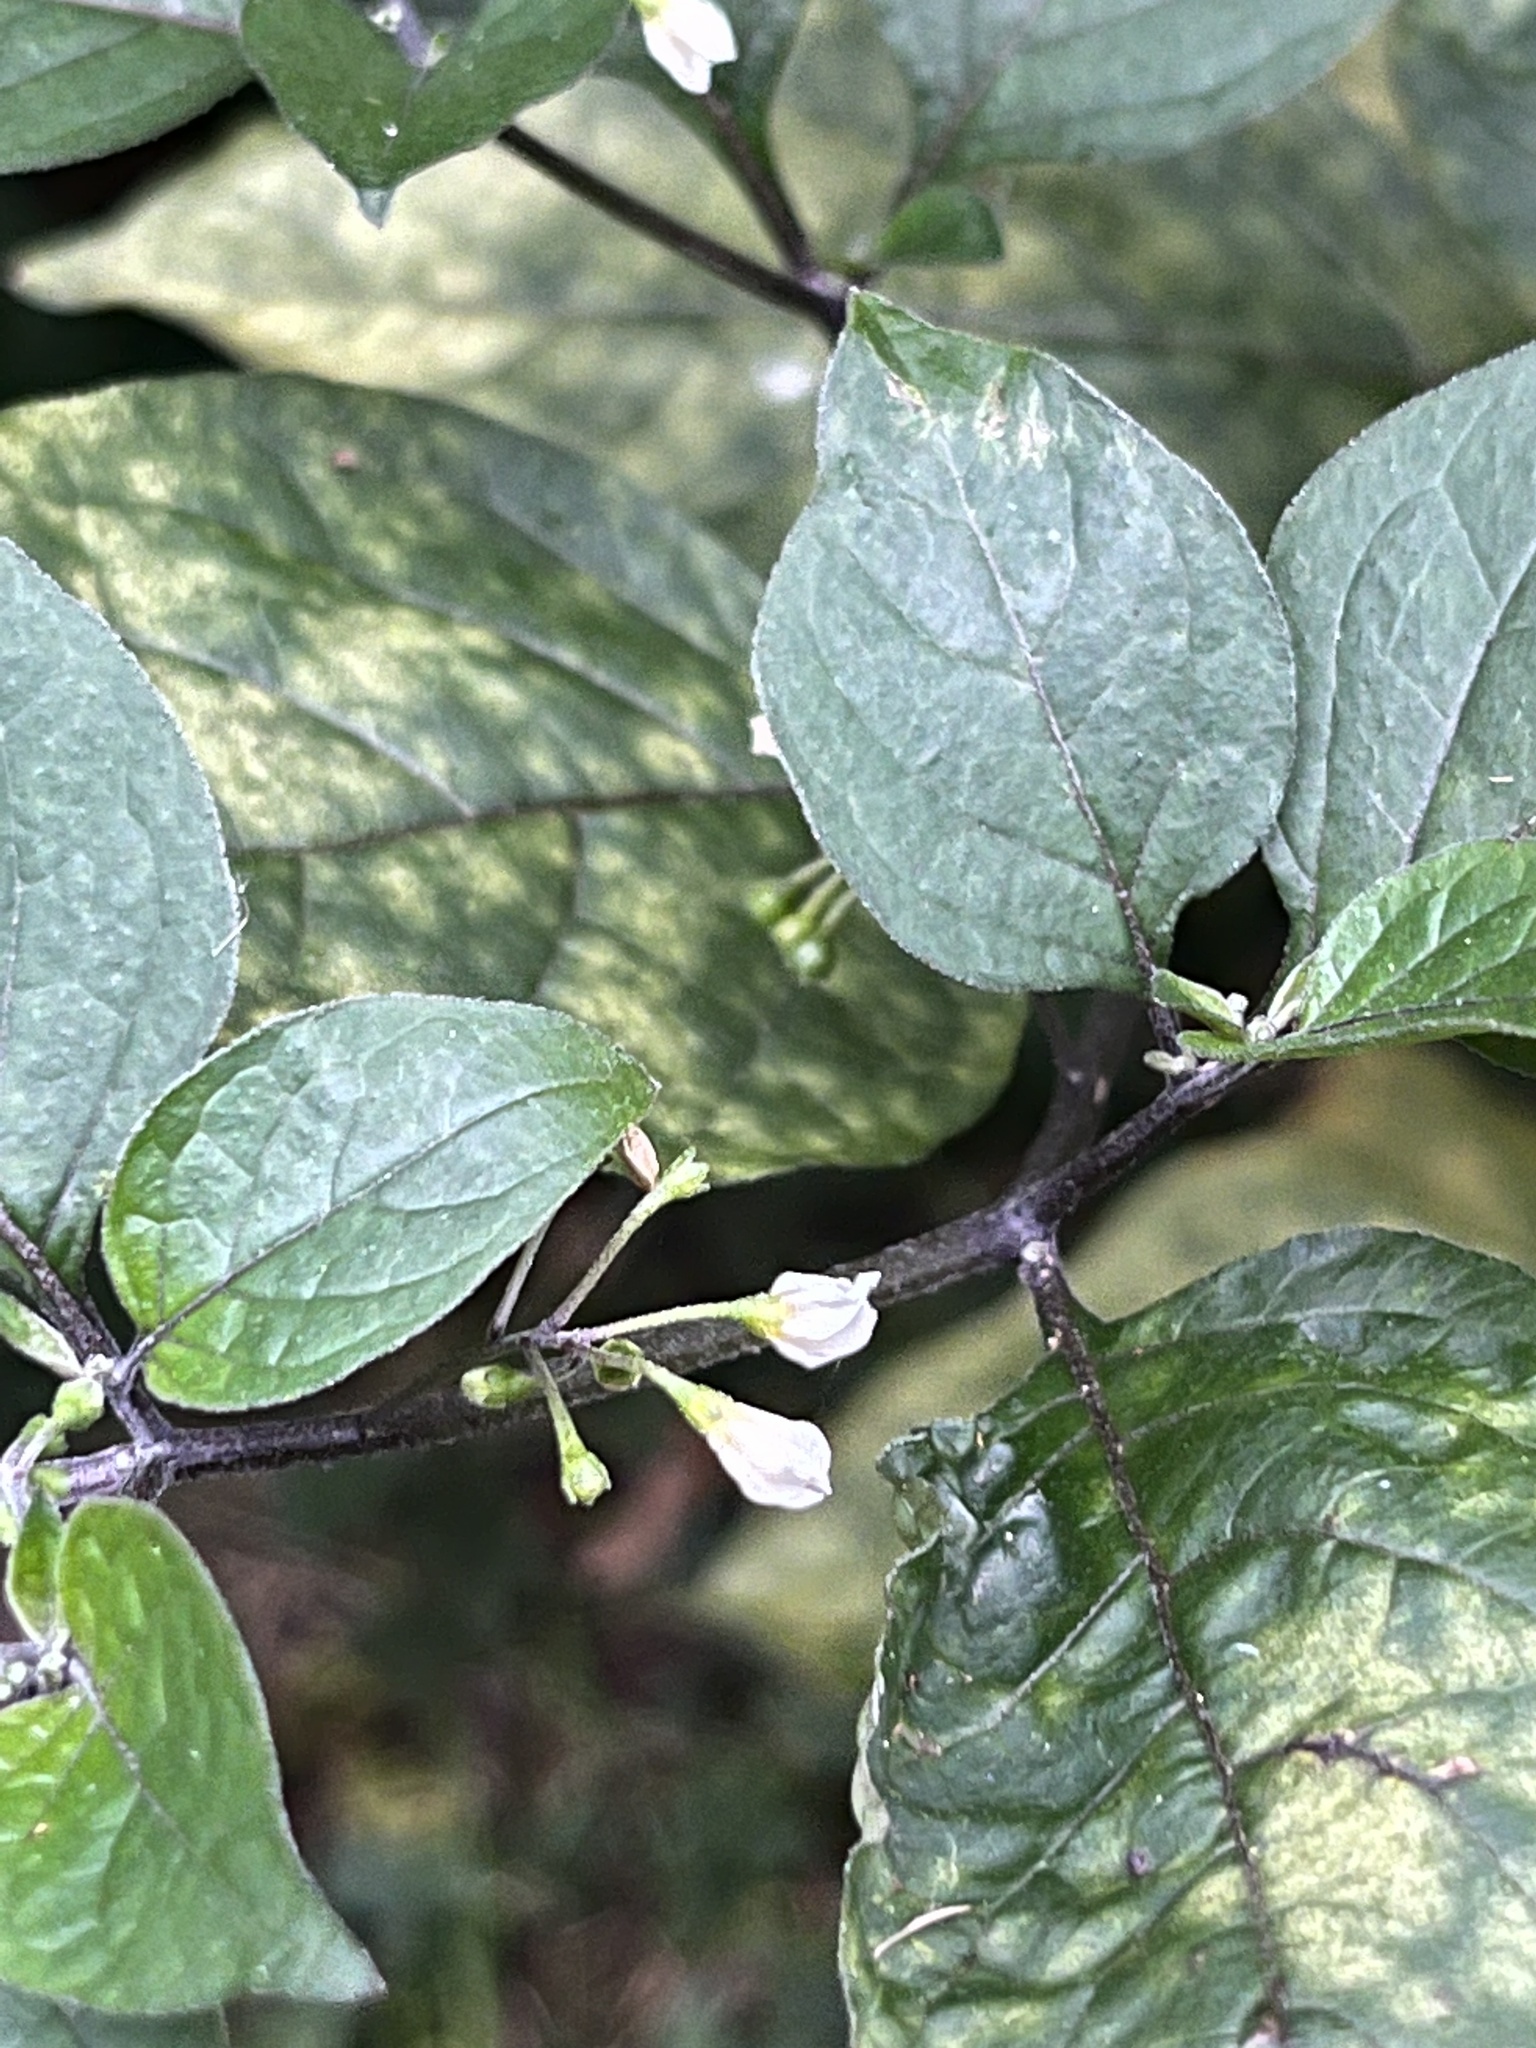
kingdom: Plantae
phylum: Tracheophyta
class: Magnoliopsida
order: Solanales
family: Solanaceae
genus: Solanum
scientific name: Solanum nigrum
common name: Black nightshade
